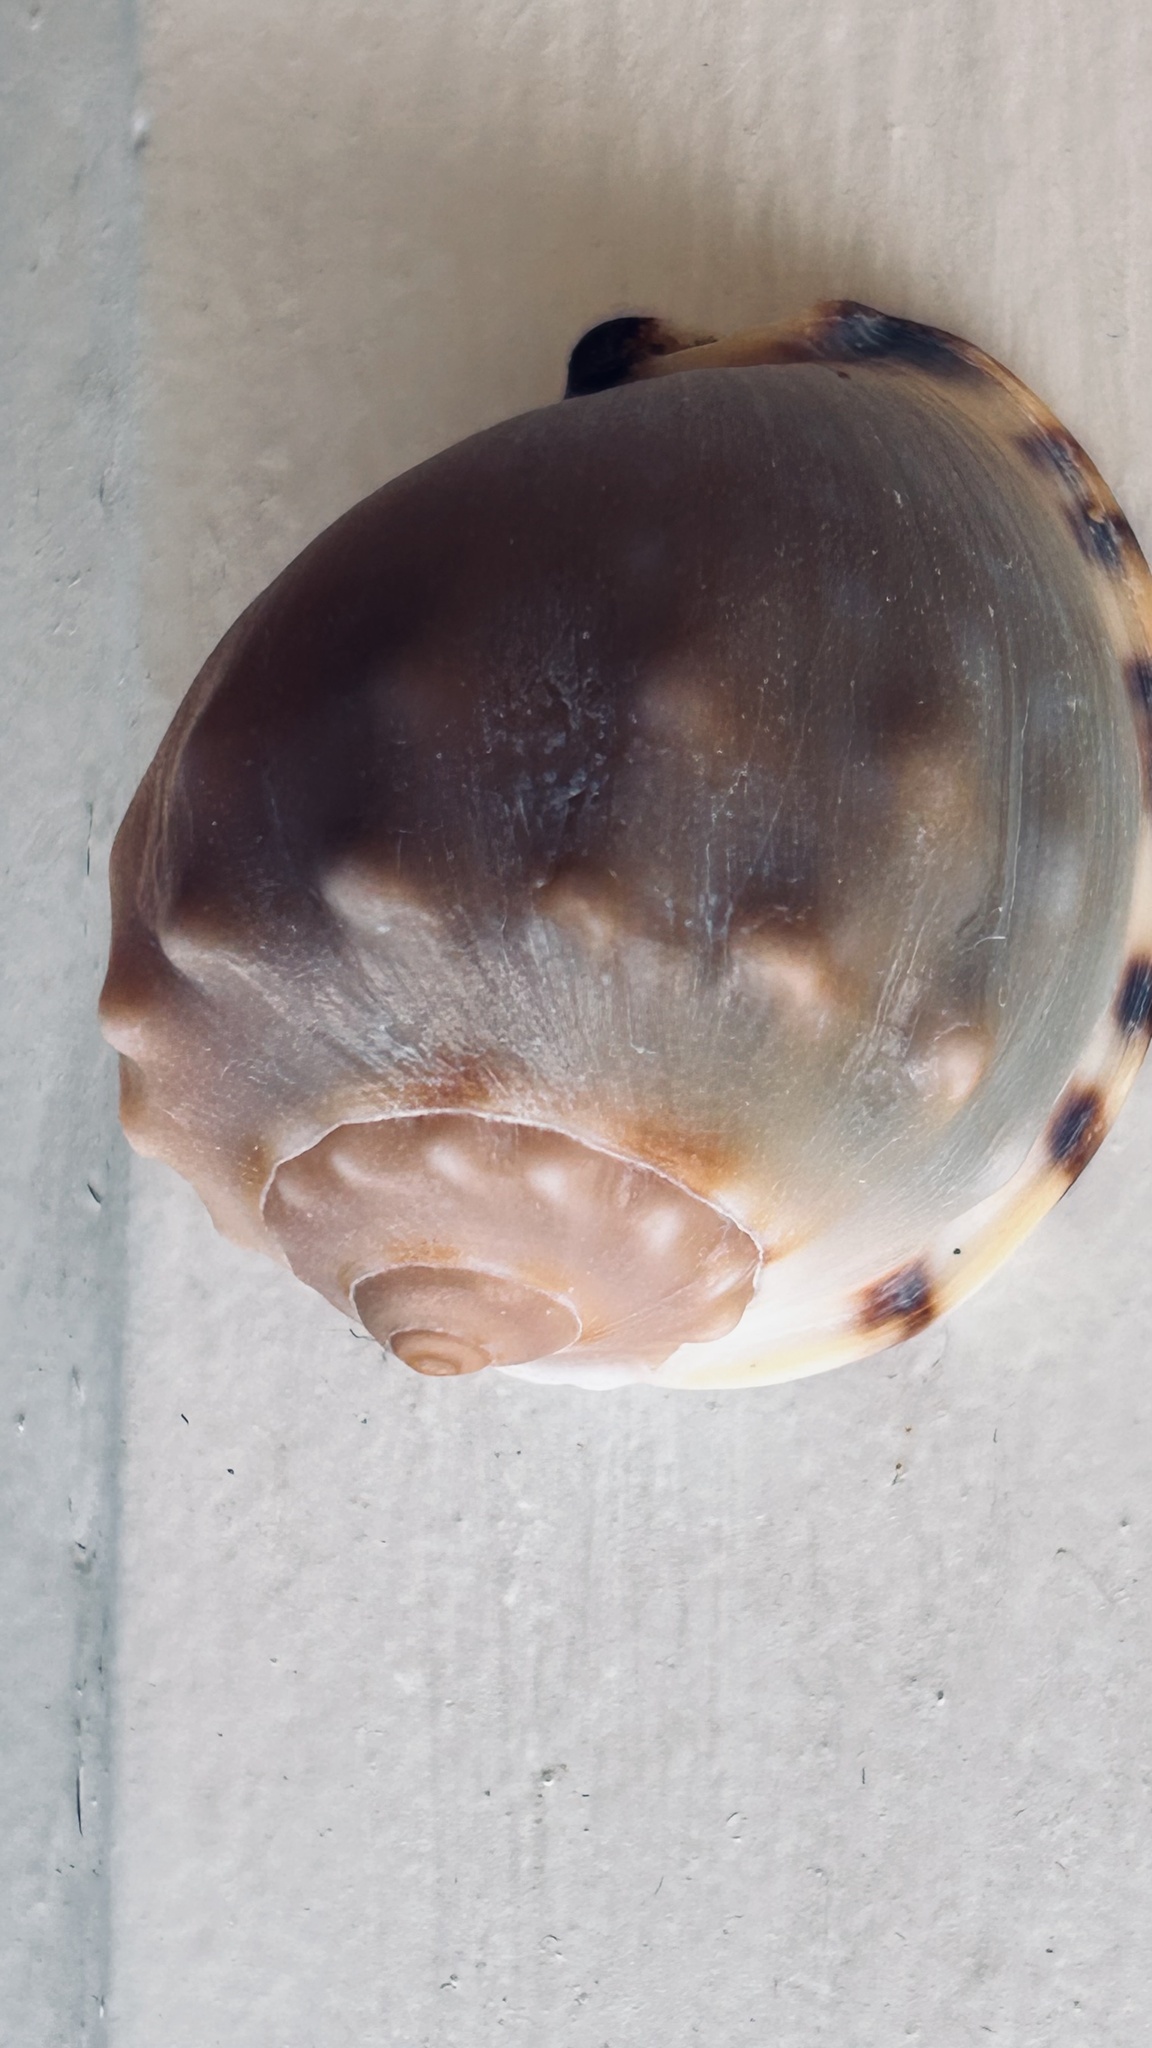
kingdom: Animalia
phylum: Mollusca
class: Gastropoda
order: Littorinimorpha
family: Cassidae
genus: Semicassis
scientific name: Semicassis zeylanica
